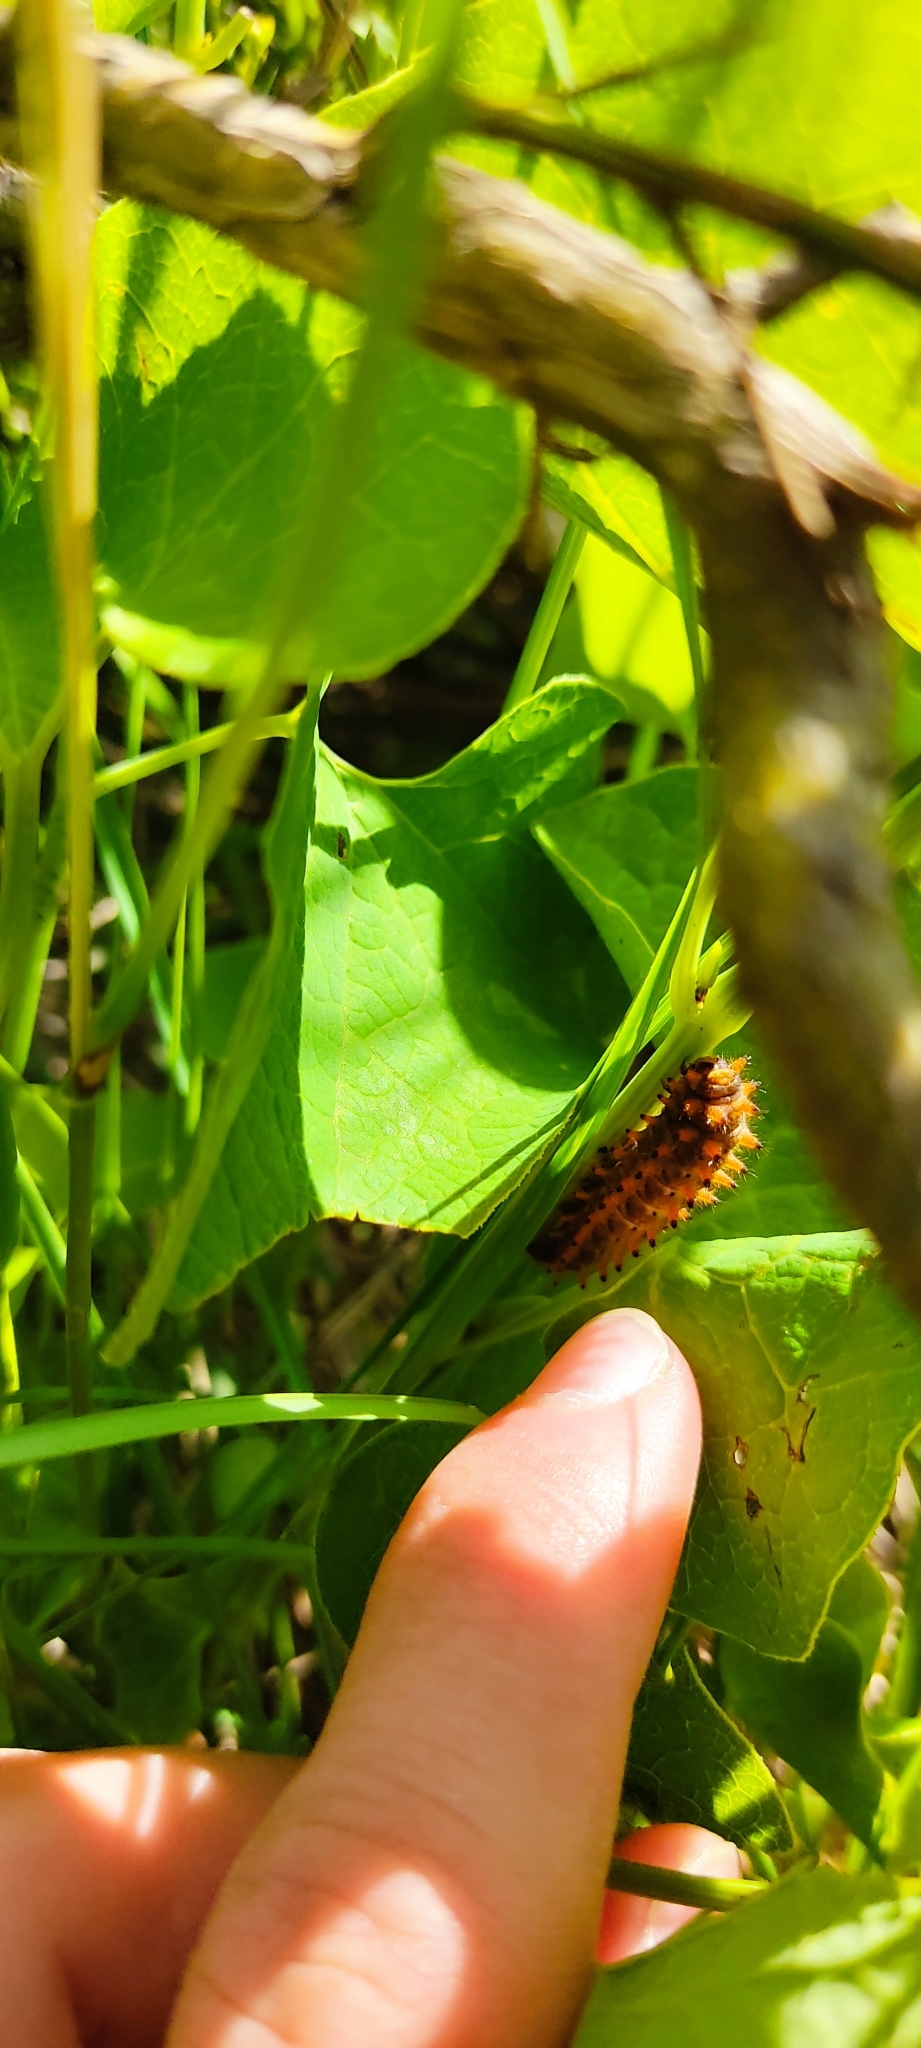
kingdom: Animalia
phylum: Arthropoda
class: Insecta
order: Lepidoptera
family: Papilionidae
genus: Zerynthia
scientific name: Zerynthia polyxena
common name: Southern festoon
